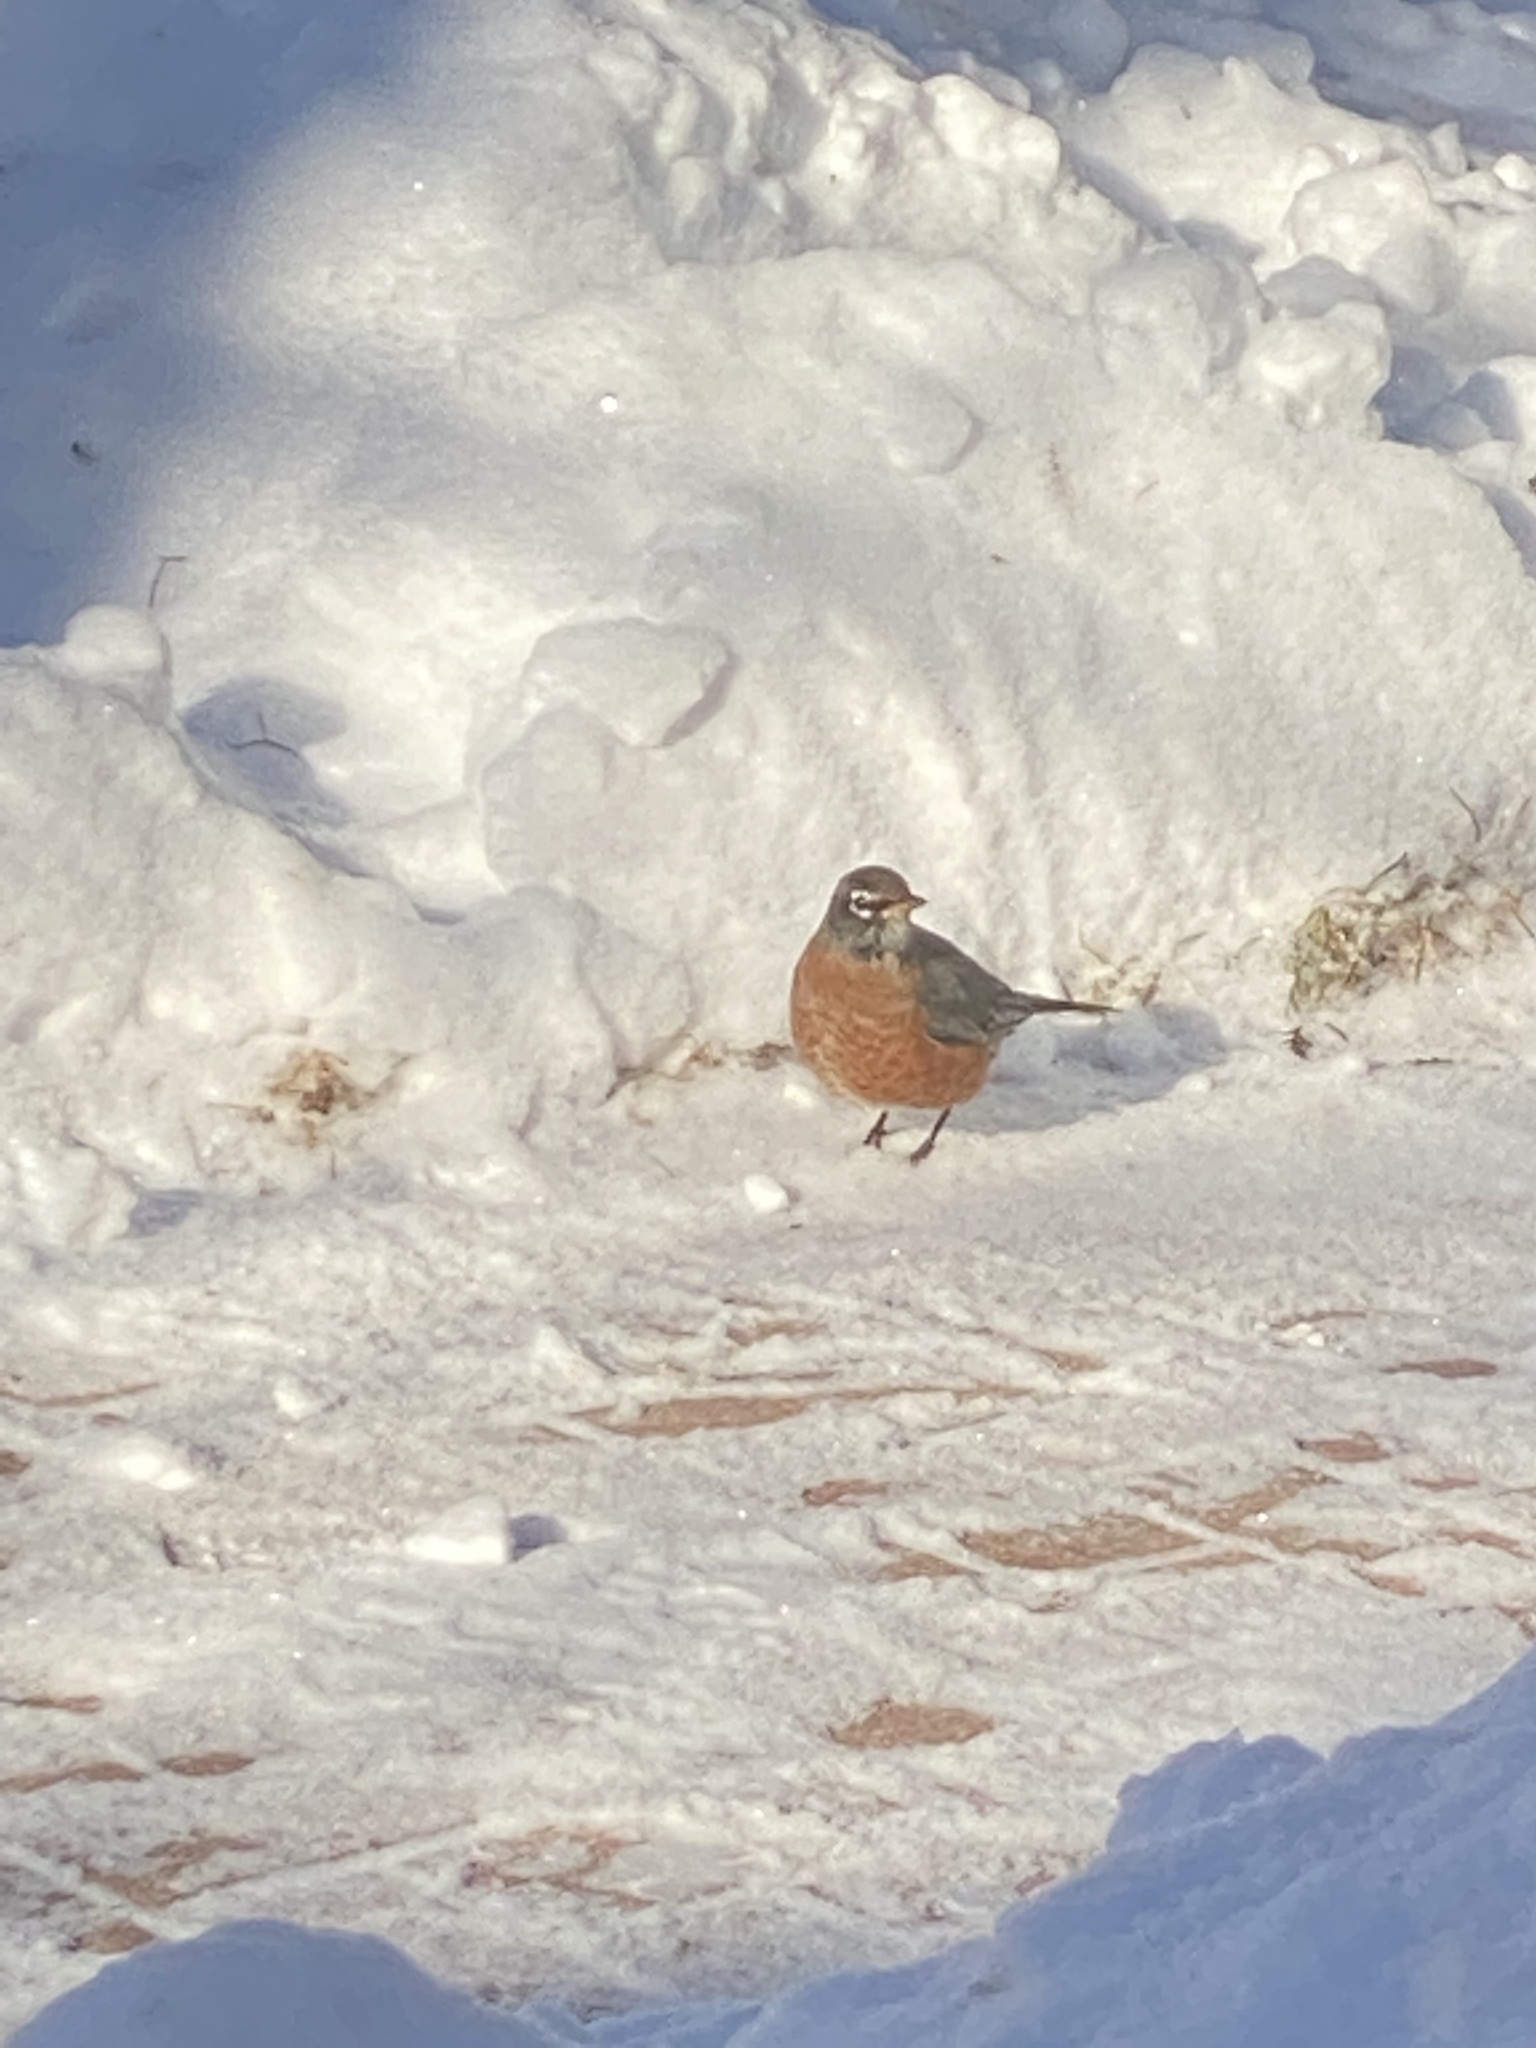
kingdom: Animalia
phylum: Chordata
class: Aves
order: Passeriformes
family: Turdidae
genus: Turdus
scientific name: Turdus migratorius
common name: American robin
